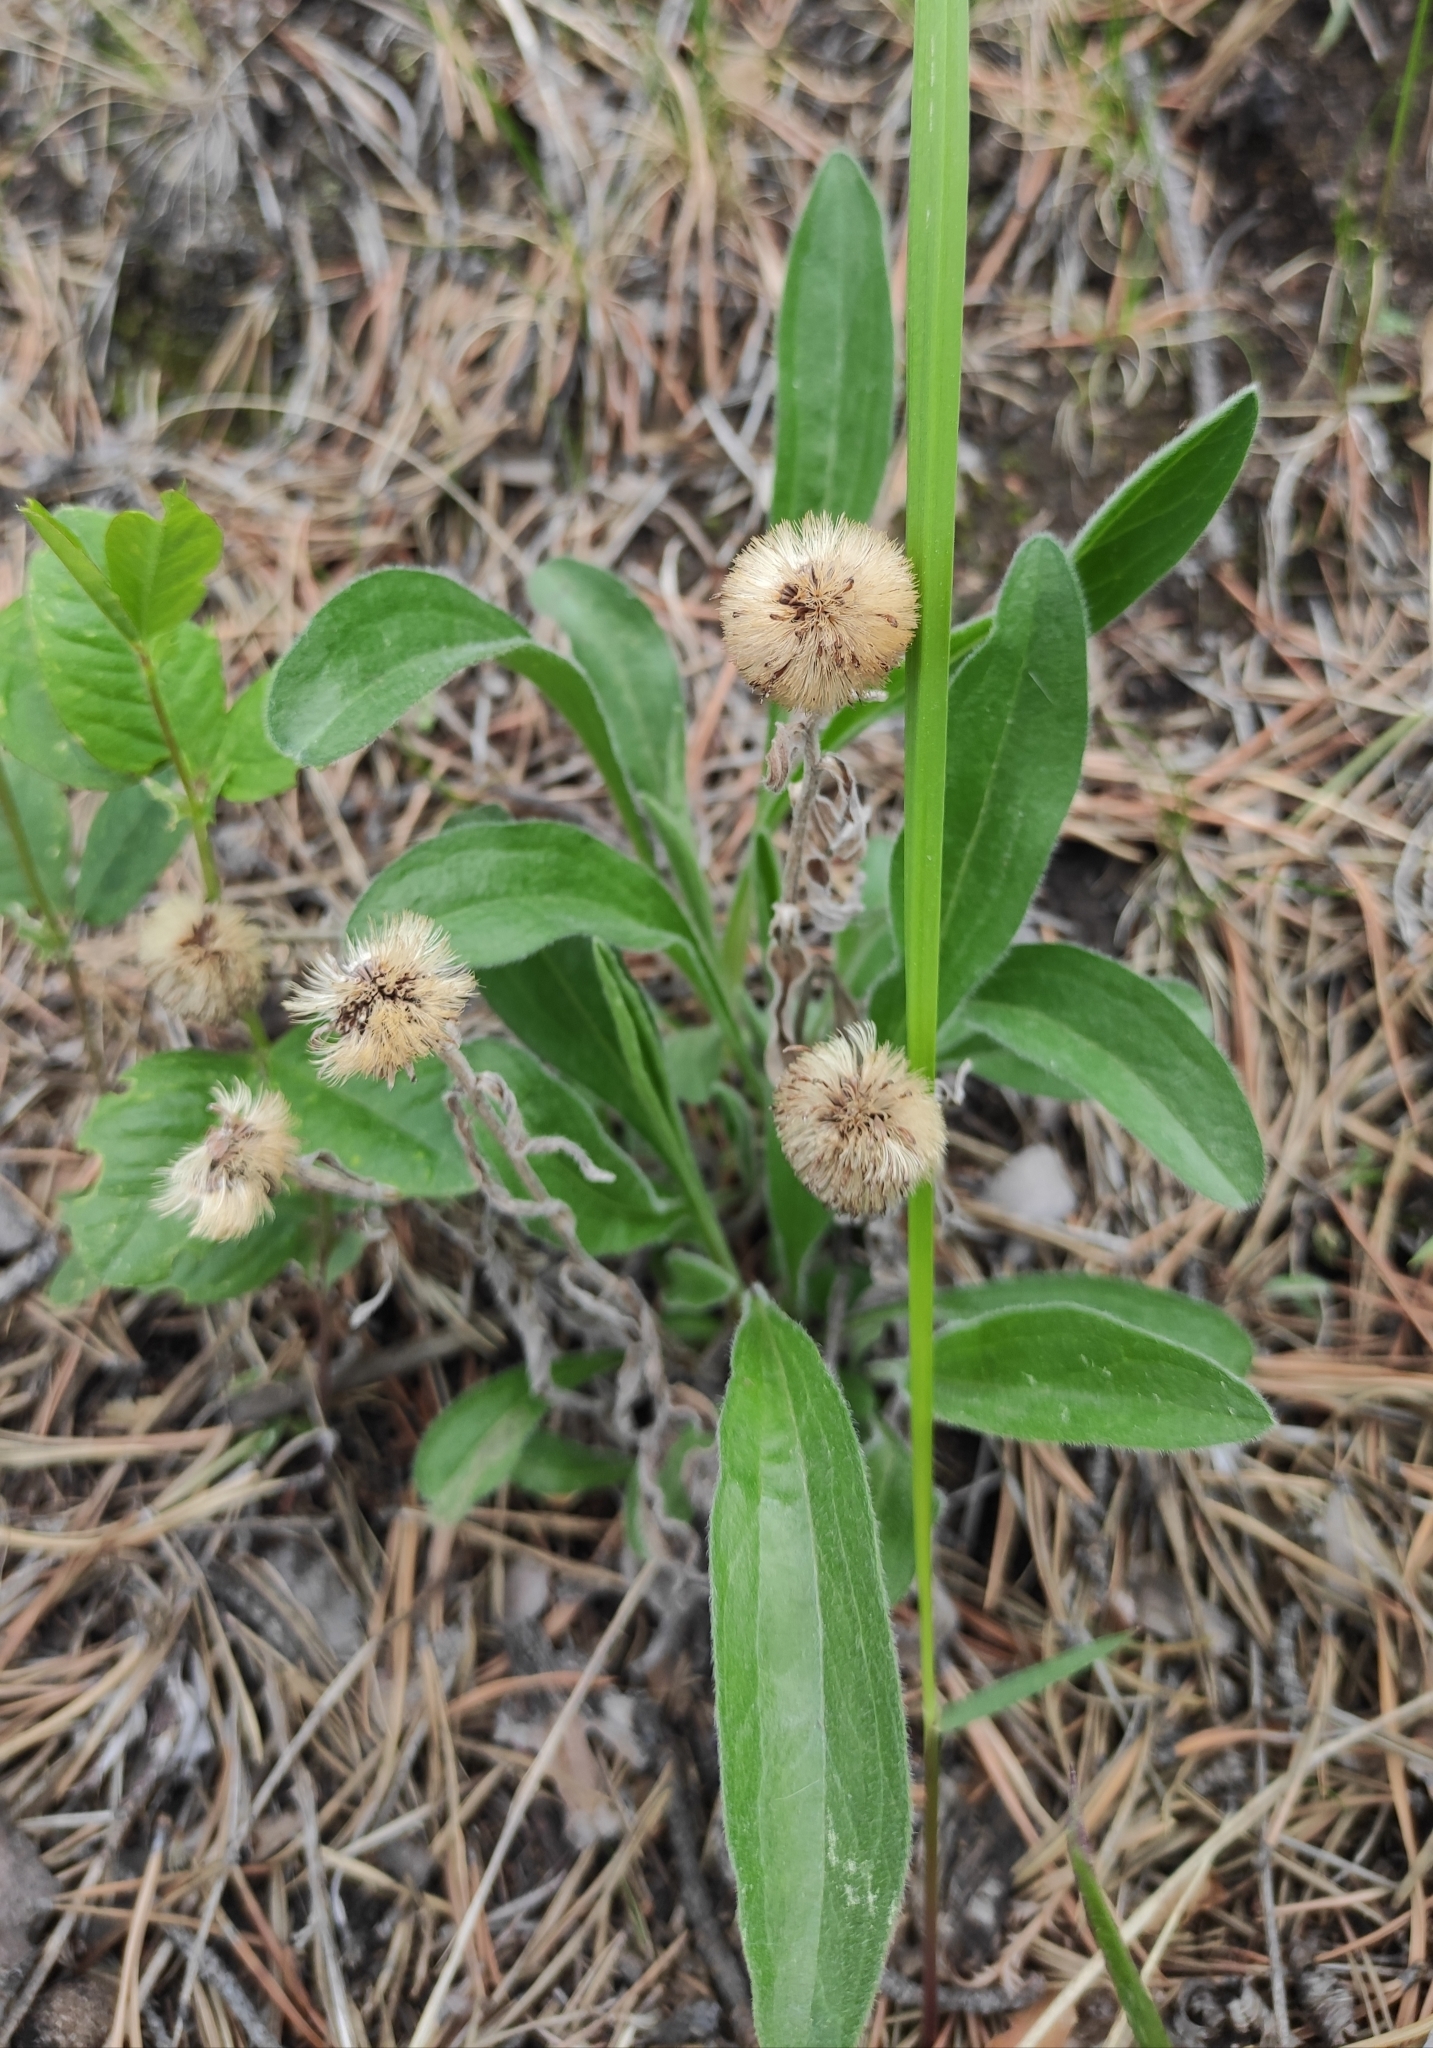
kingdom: Plantae
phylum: Tracheophyta
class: Magnoliopsida
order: Asterales
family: Asteraceae
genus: Aster
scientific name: Aster alpinus
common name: Alpine aster
